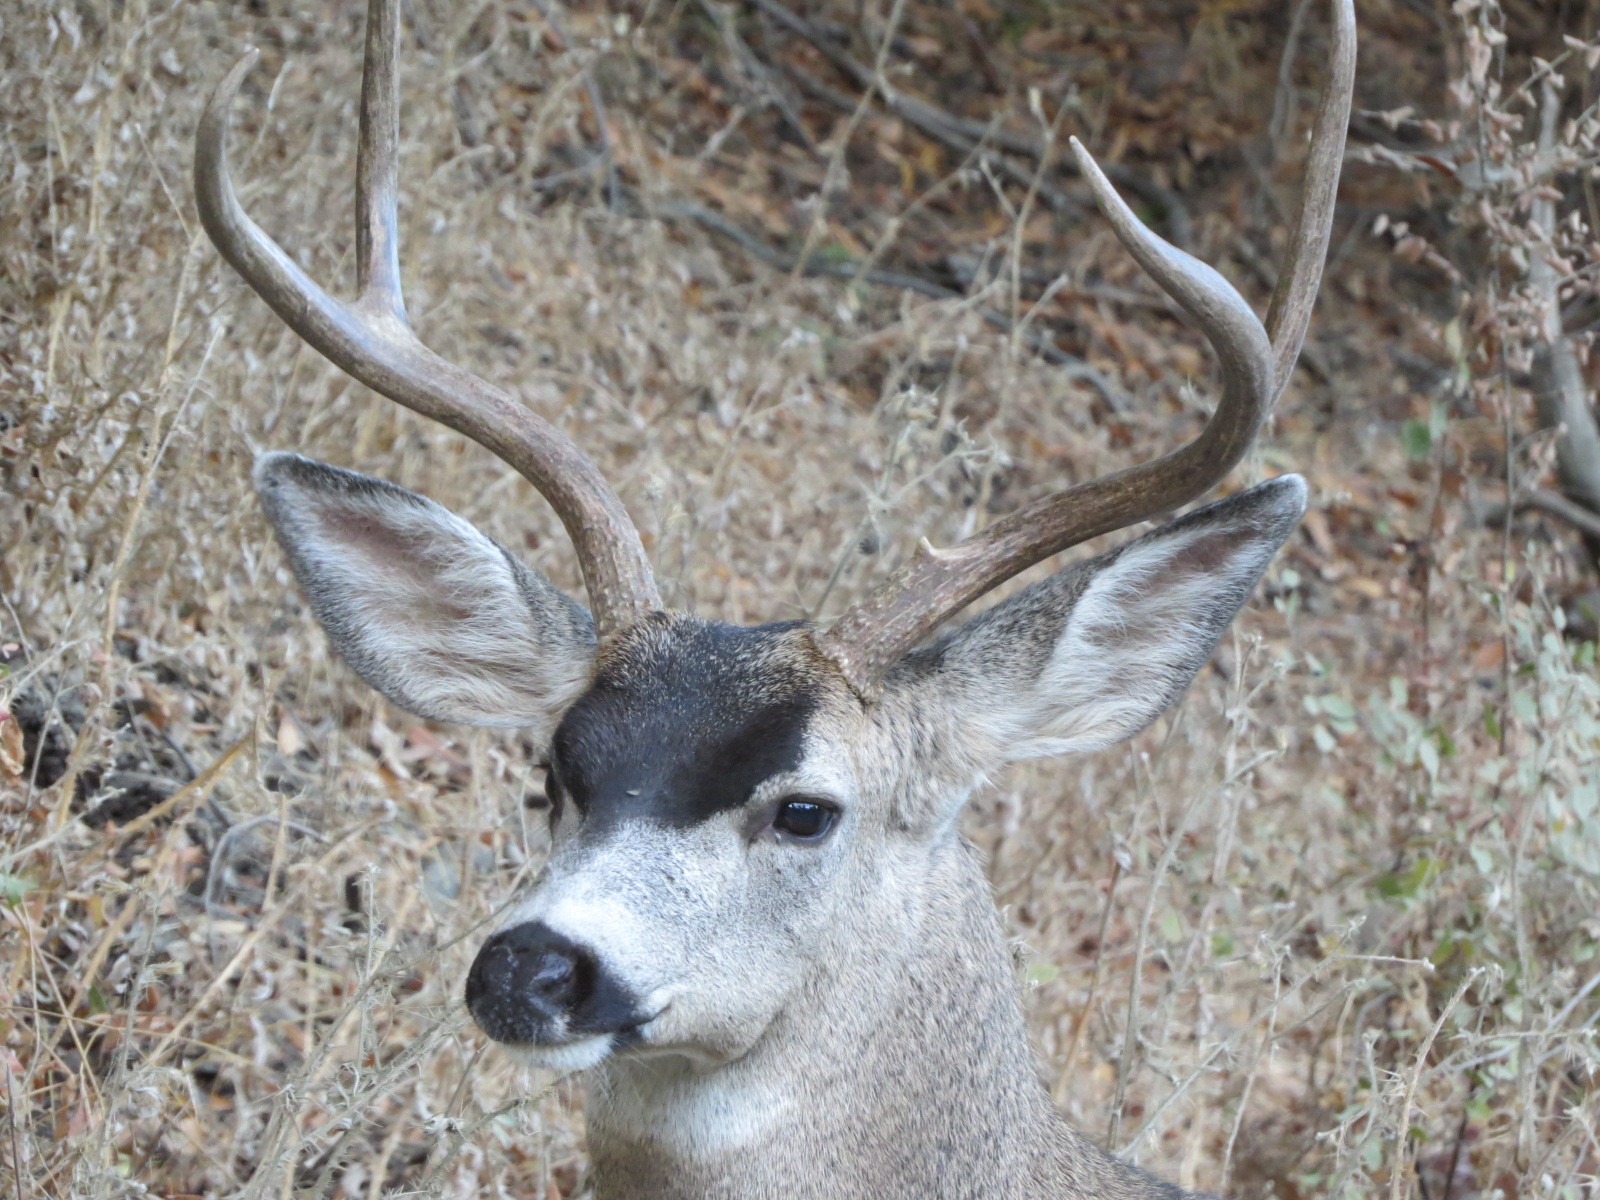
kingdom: Animalia
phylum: Chordata
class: Mammalia
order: Artiodactyla
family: Cervidae
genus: Odocoileus
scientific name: Odocoileus hemionus
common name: Mule deer
